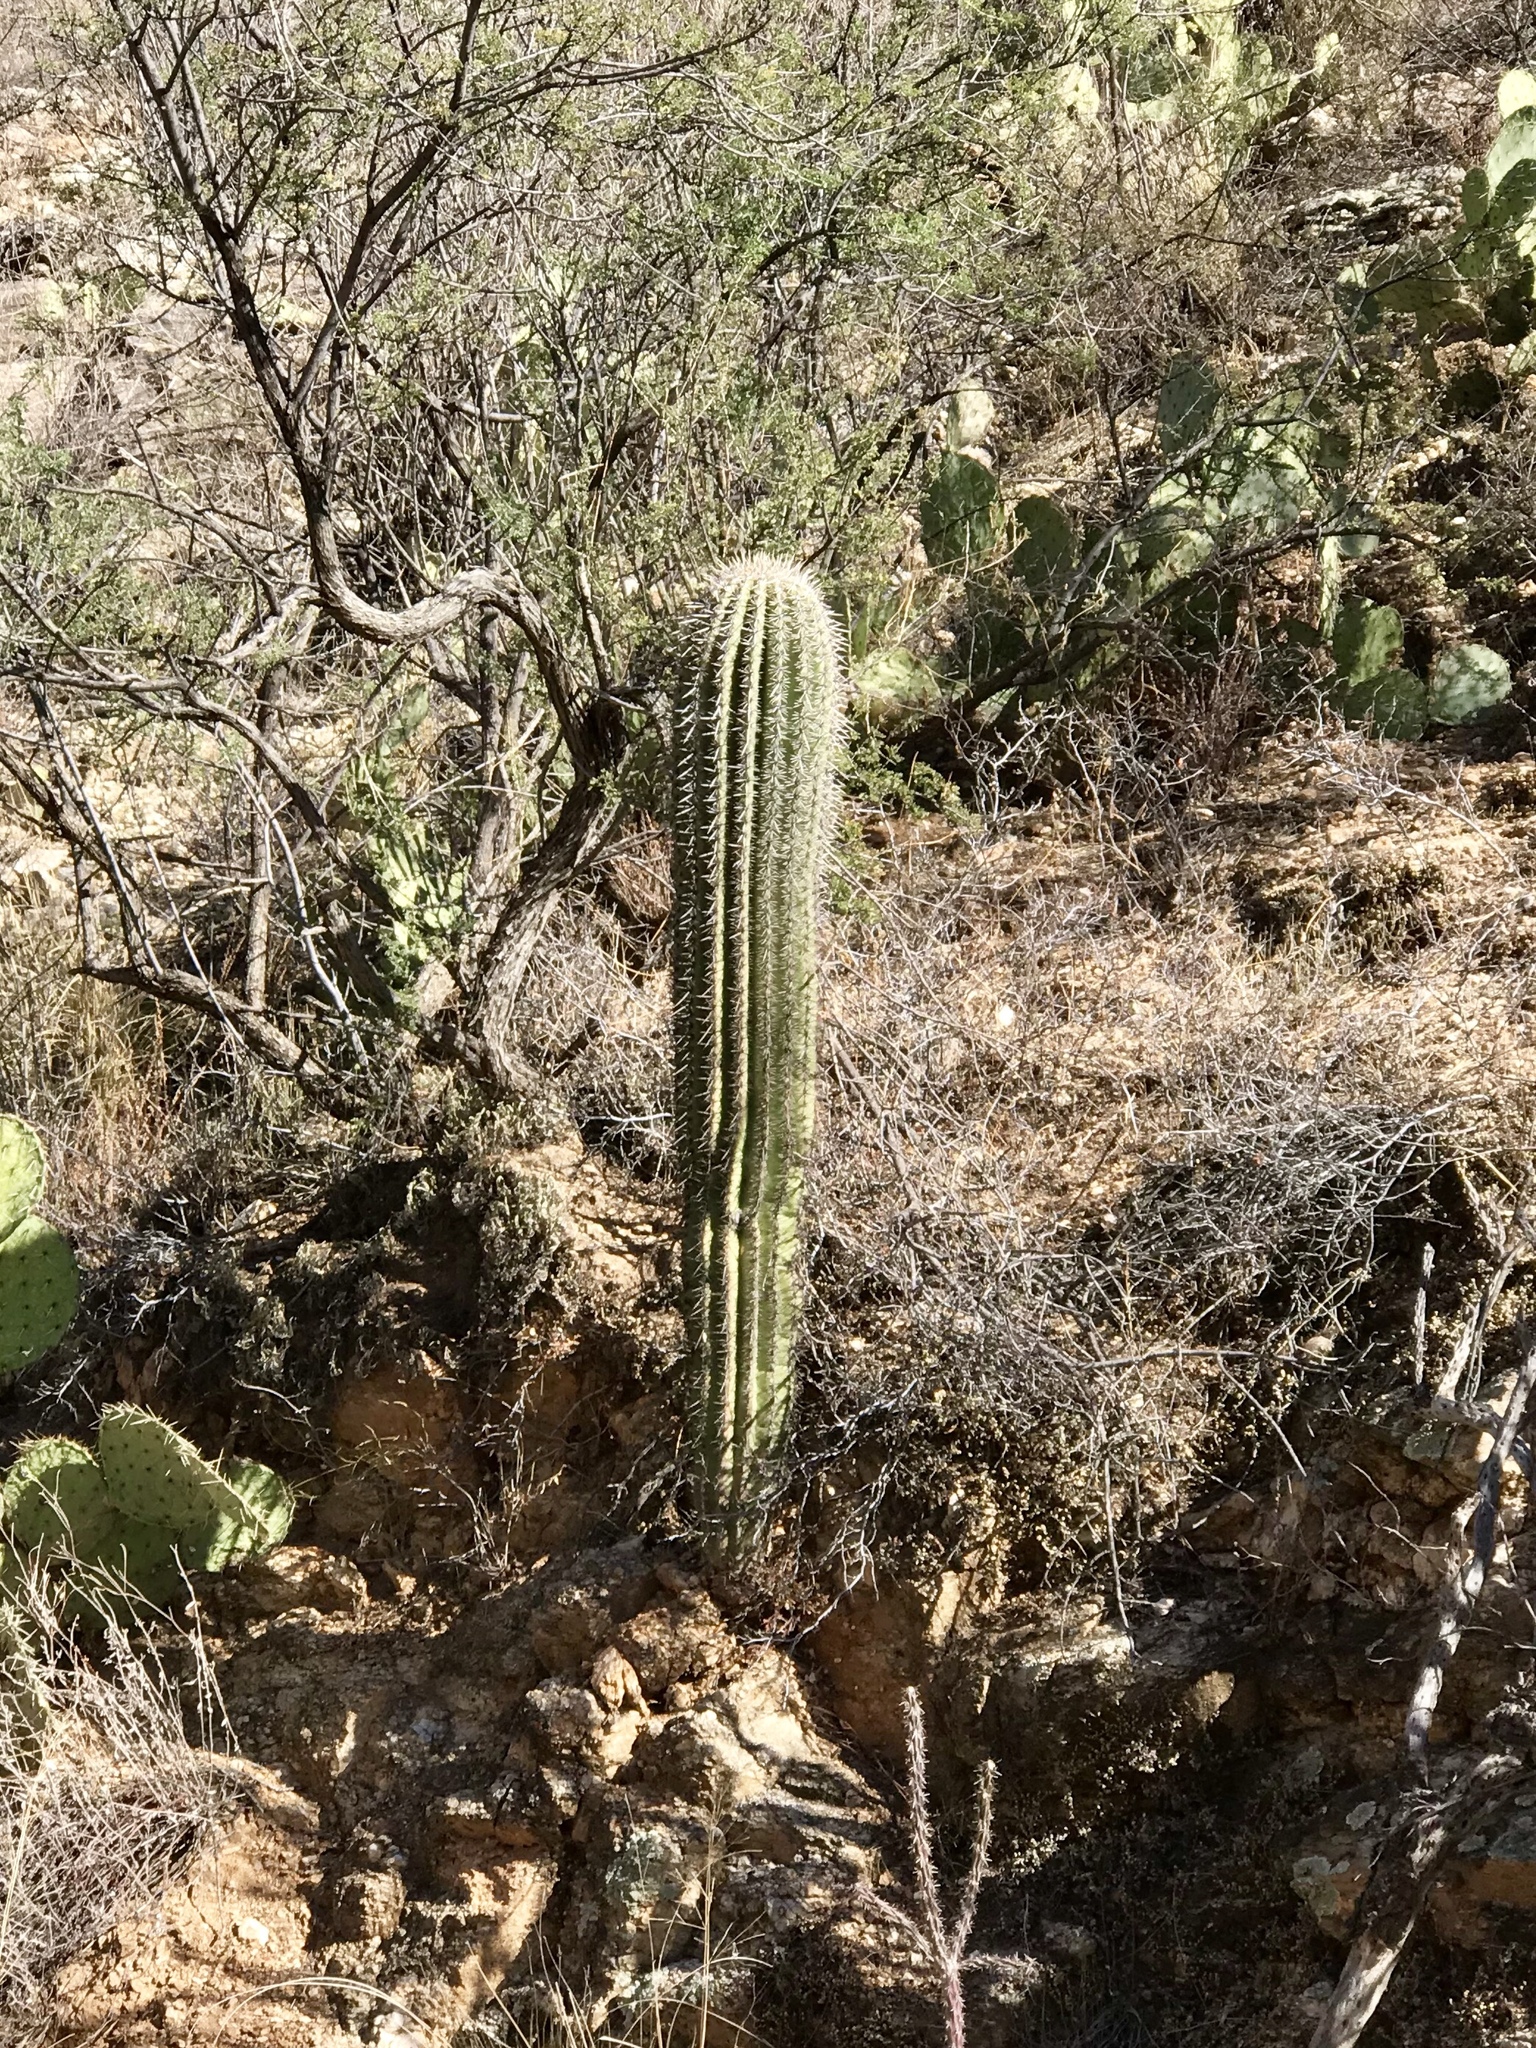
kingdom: Plantae
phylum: Tracheophyta
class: Magnoliopsida
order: Caryophyllales
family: Cactaceae
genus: Carnegiea
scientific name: Carnegiea gigantea
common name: Saguaro
